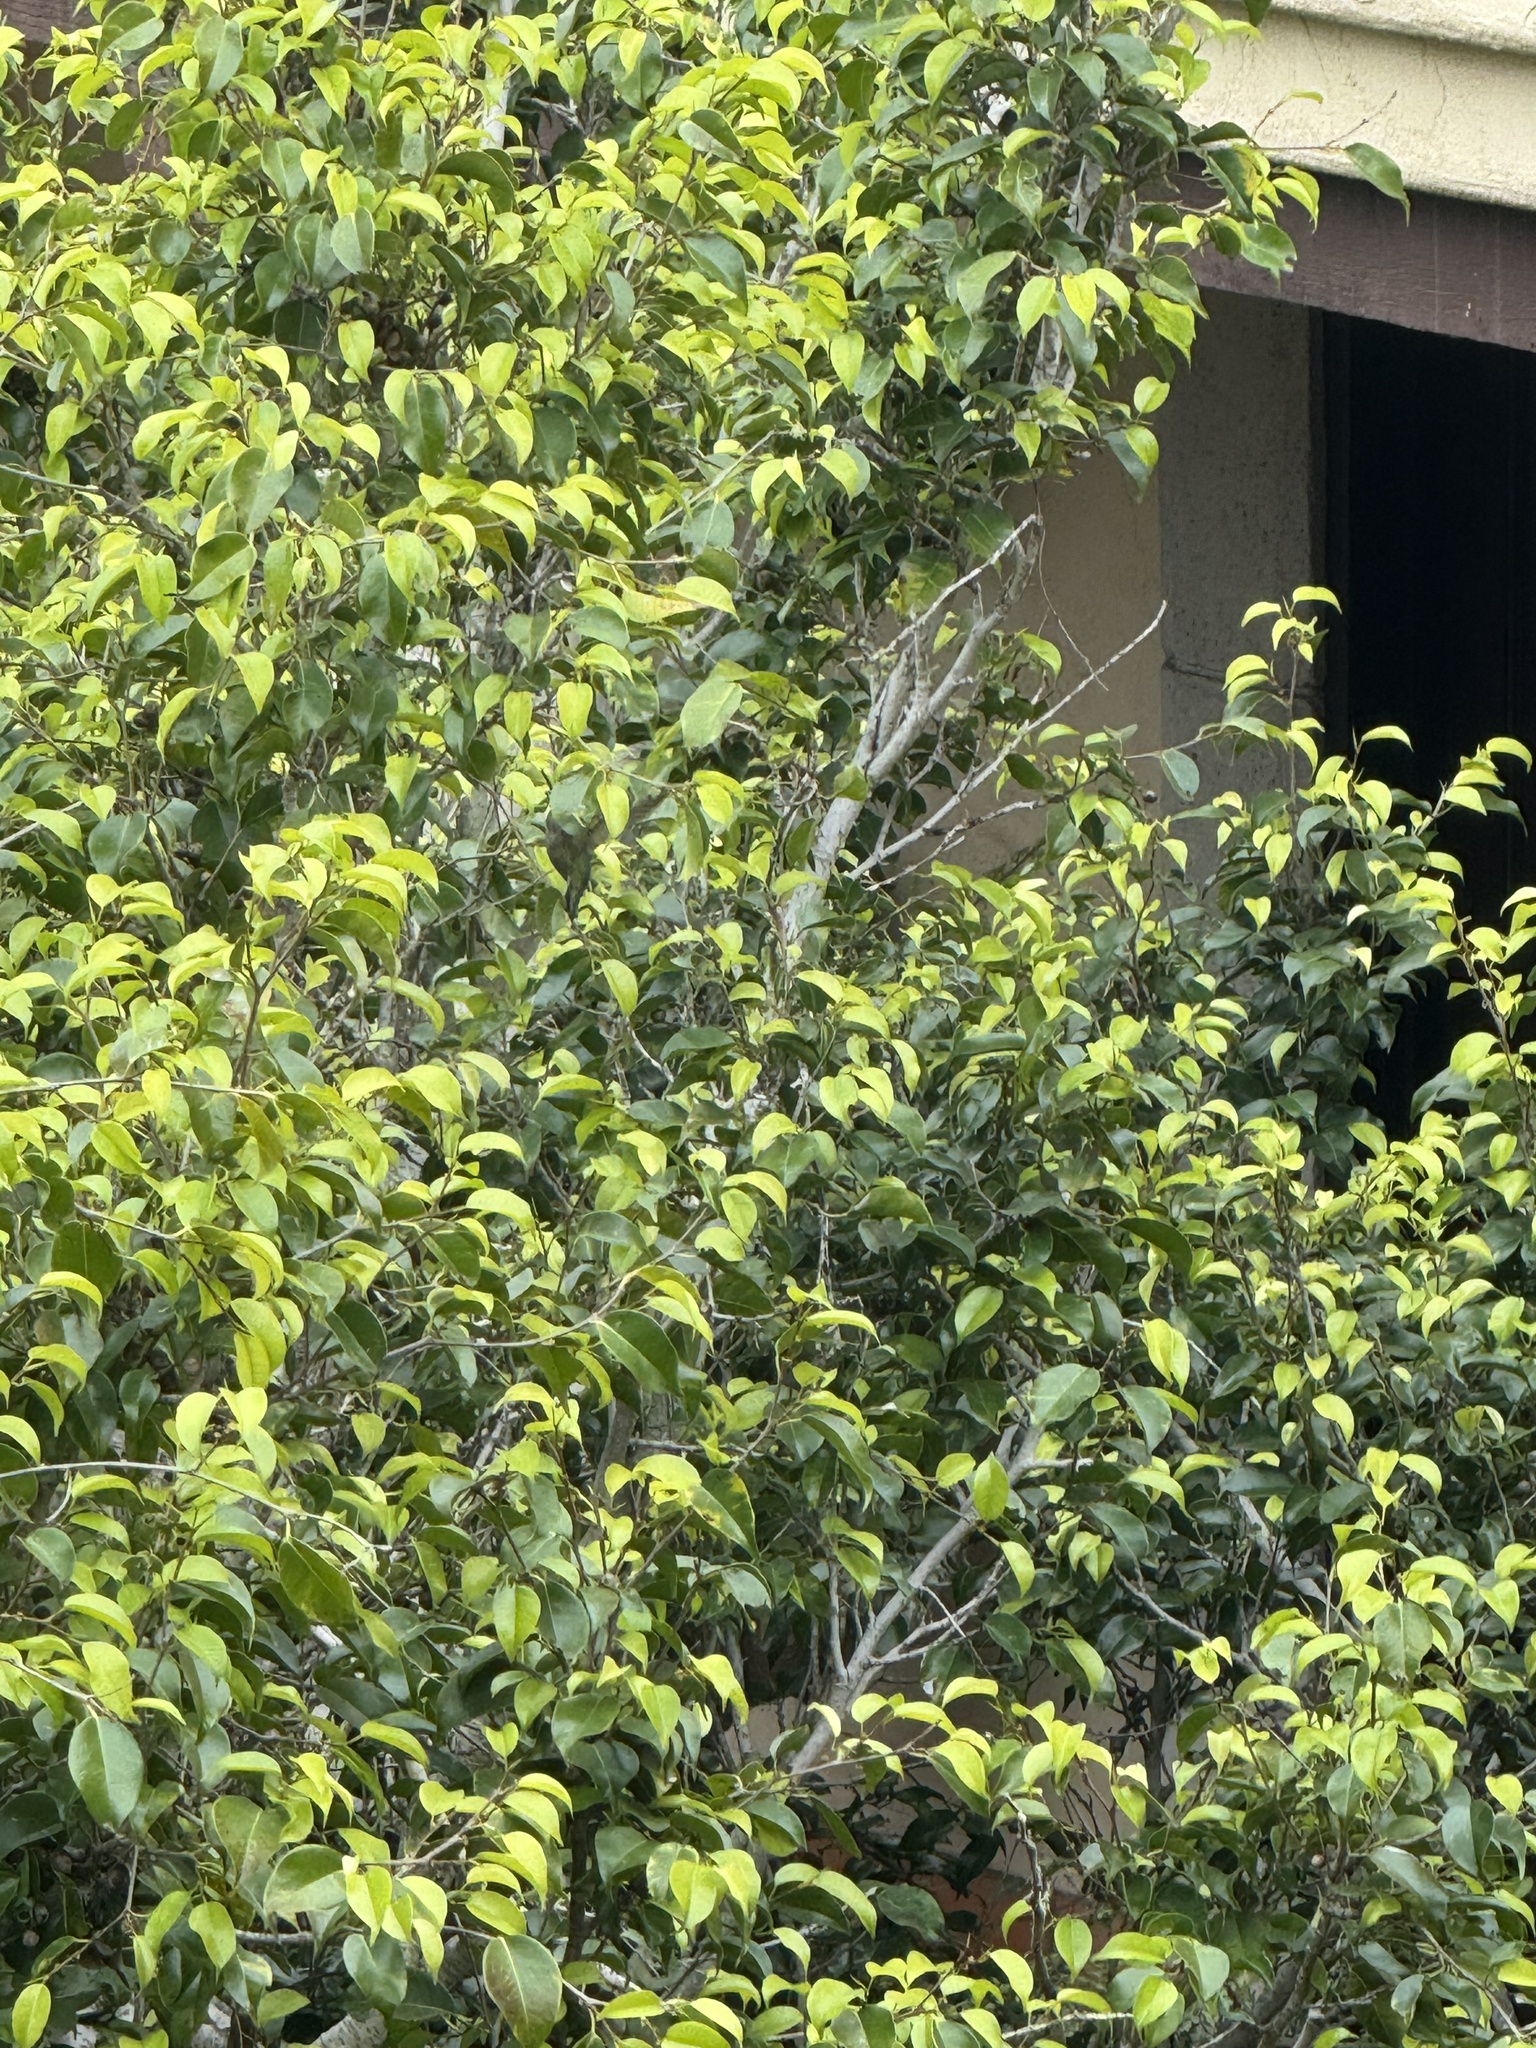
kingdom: Animalia
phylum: Chordata
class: Aves
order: Apodiformes
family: Trochilidae
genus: Calypte
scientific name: Calypte anna
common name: Anna's hummingbird
